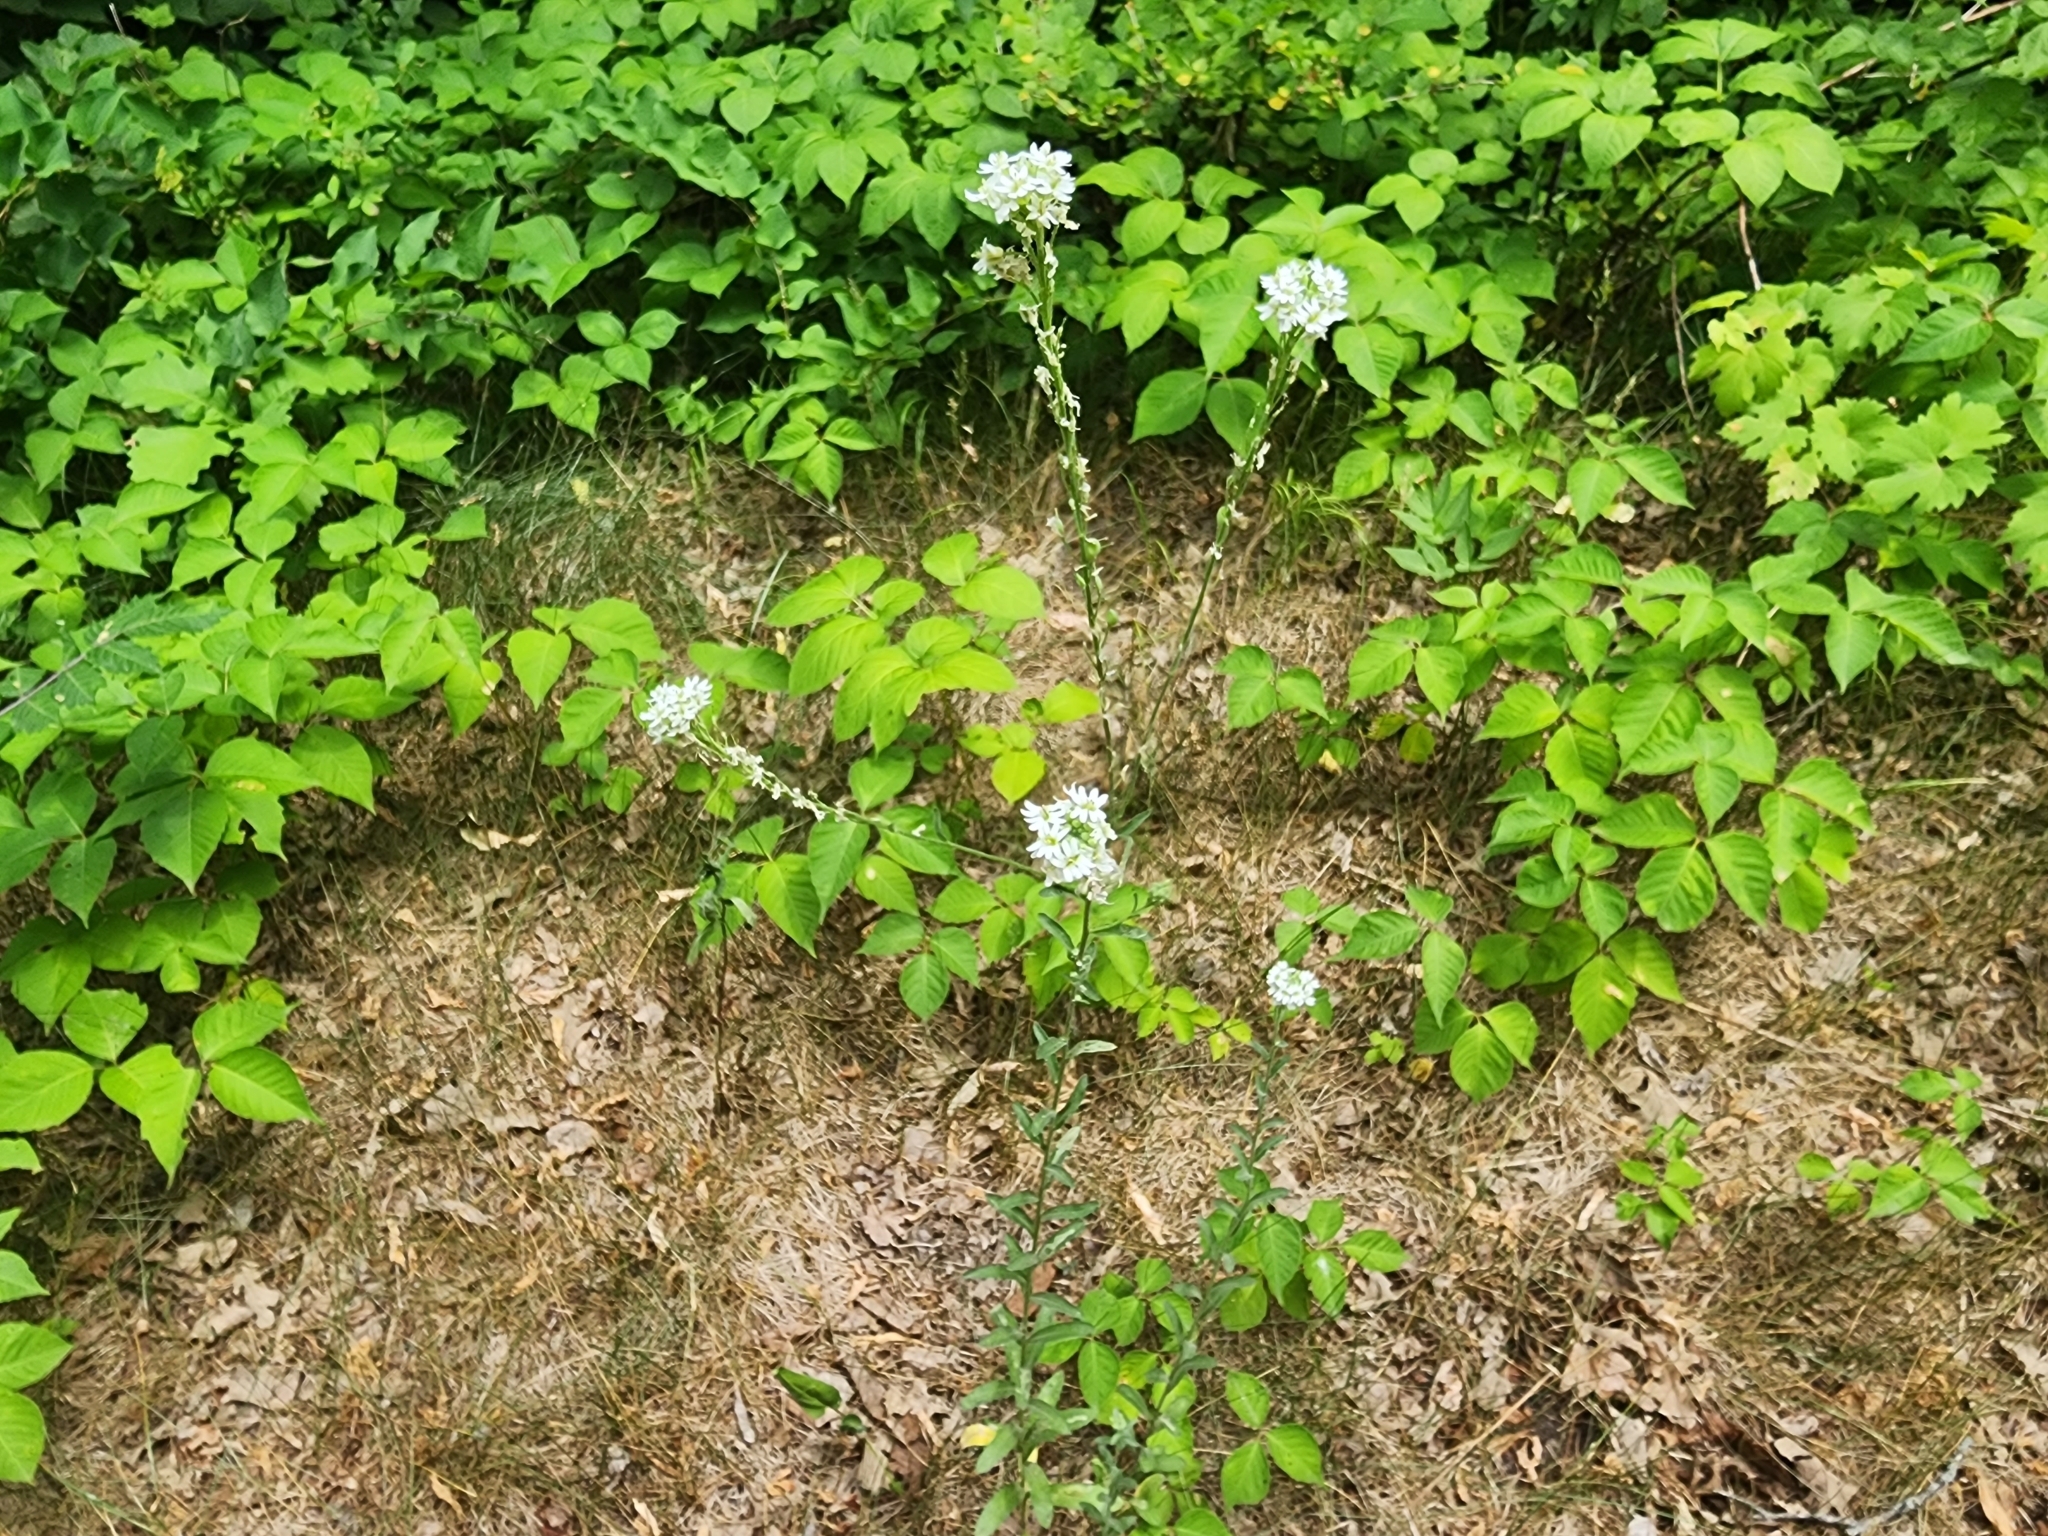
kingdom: Plantae
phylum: Tracheophyta
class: Magnoliopsida
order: Brassicales
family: Brassicaceae
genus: Berteroa
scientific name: Berteroa incana
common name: Hoary alison
